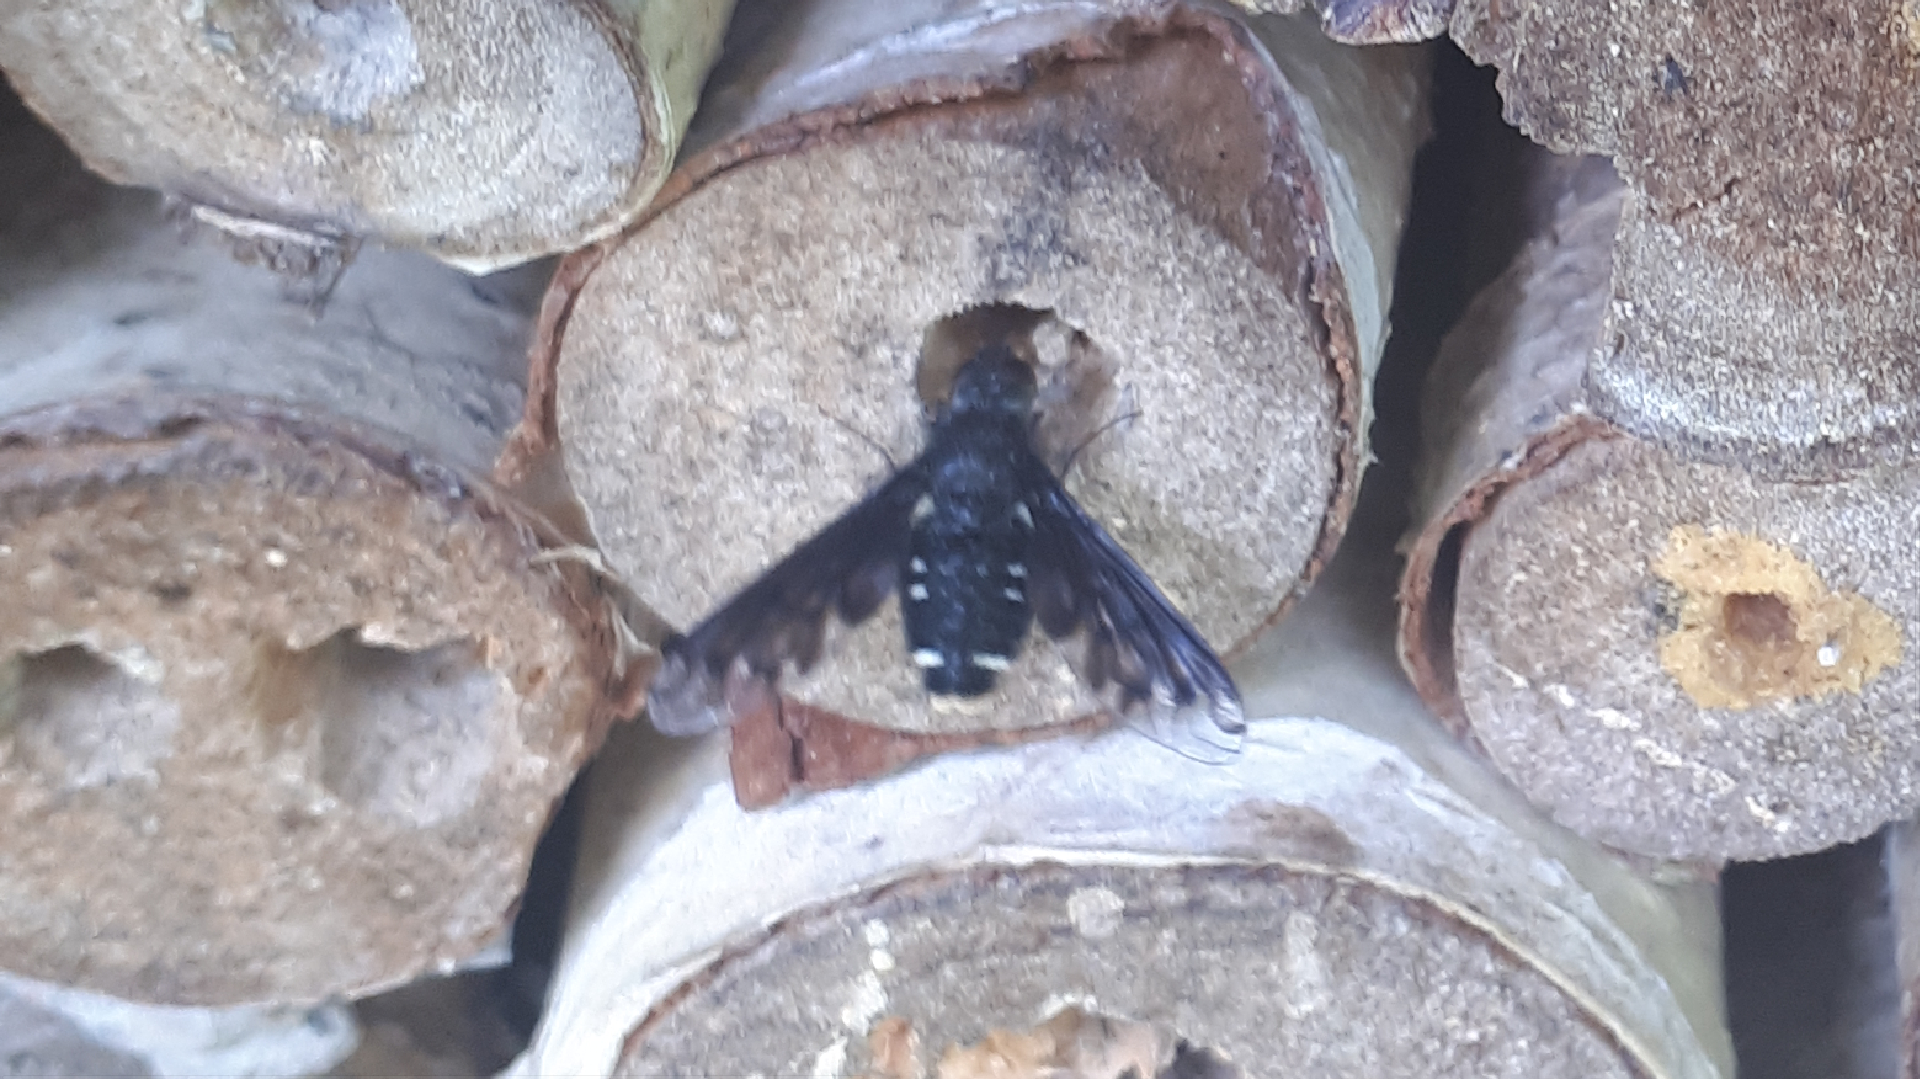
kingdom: Animalia
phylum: Arthropoda
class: Insecta
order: Diptera
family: Bombyliidae
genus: Anthrax
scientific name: Anthrax anthrax
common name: Anthracite bee-fly
